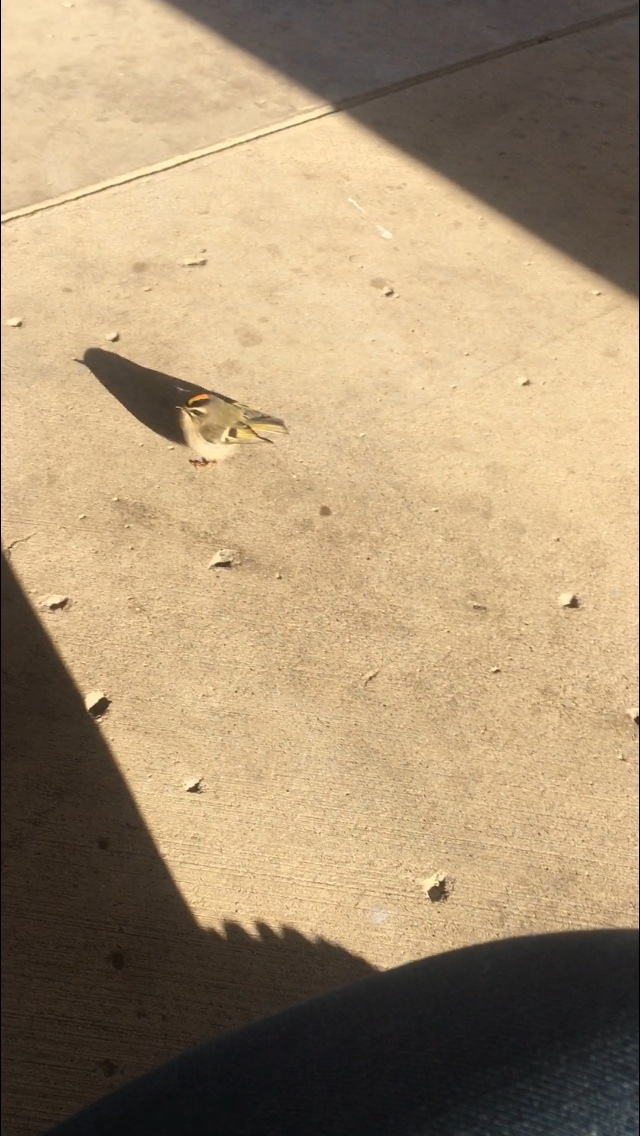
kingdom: Animalia
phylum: Chordata
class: Aves
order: Passeriformes
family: Regulidae
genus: Regulus
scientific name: Regulus satrapa
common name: Golden-crowned kinglet
